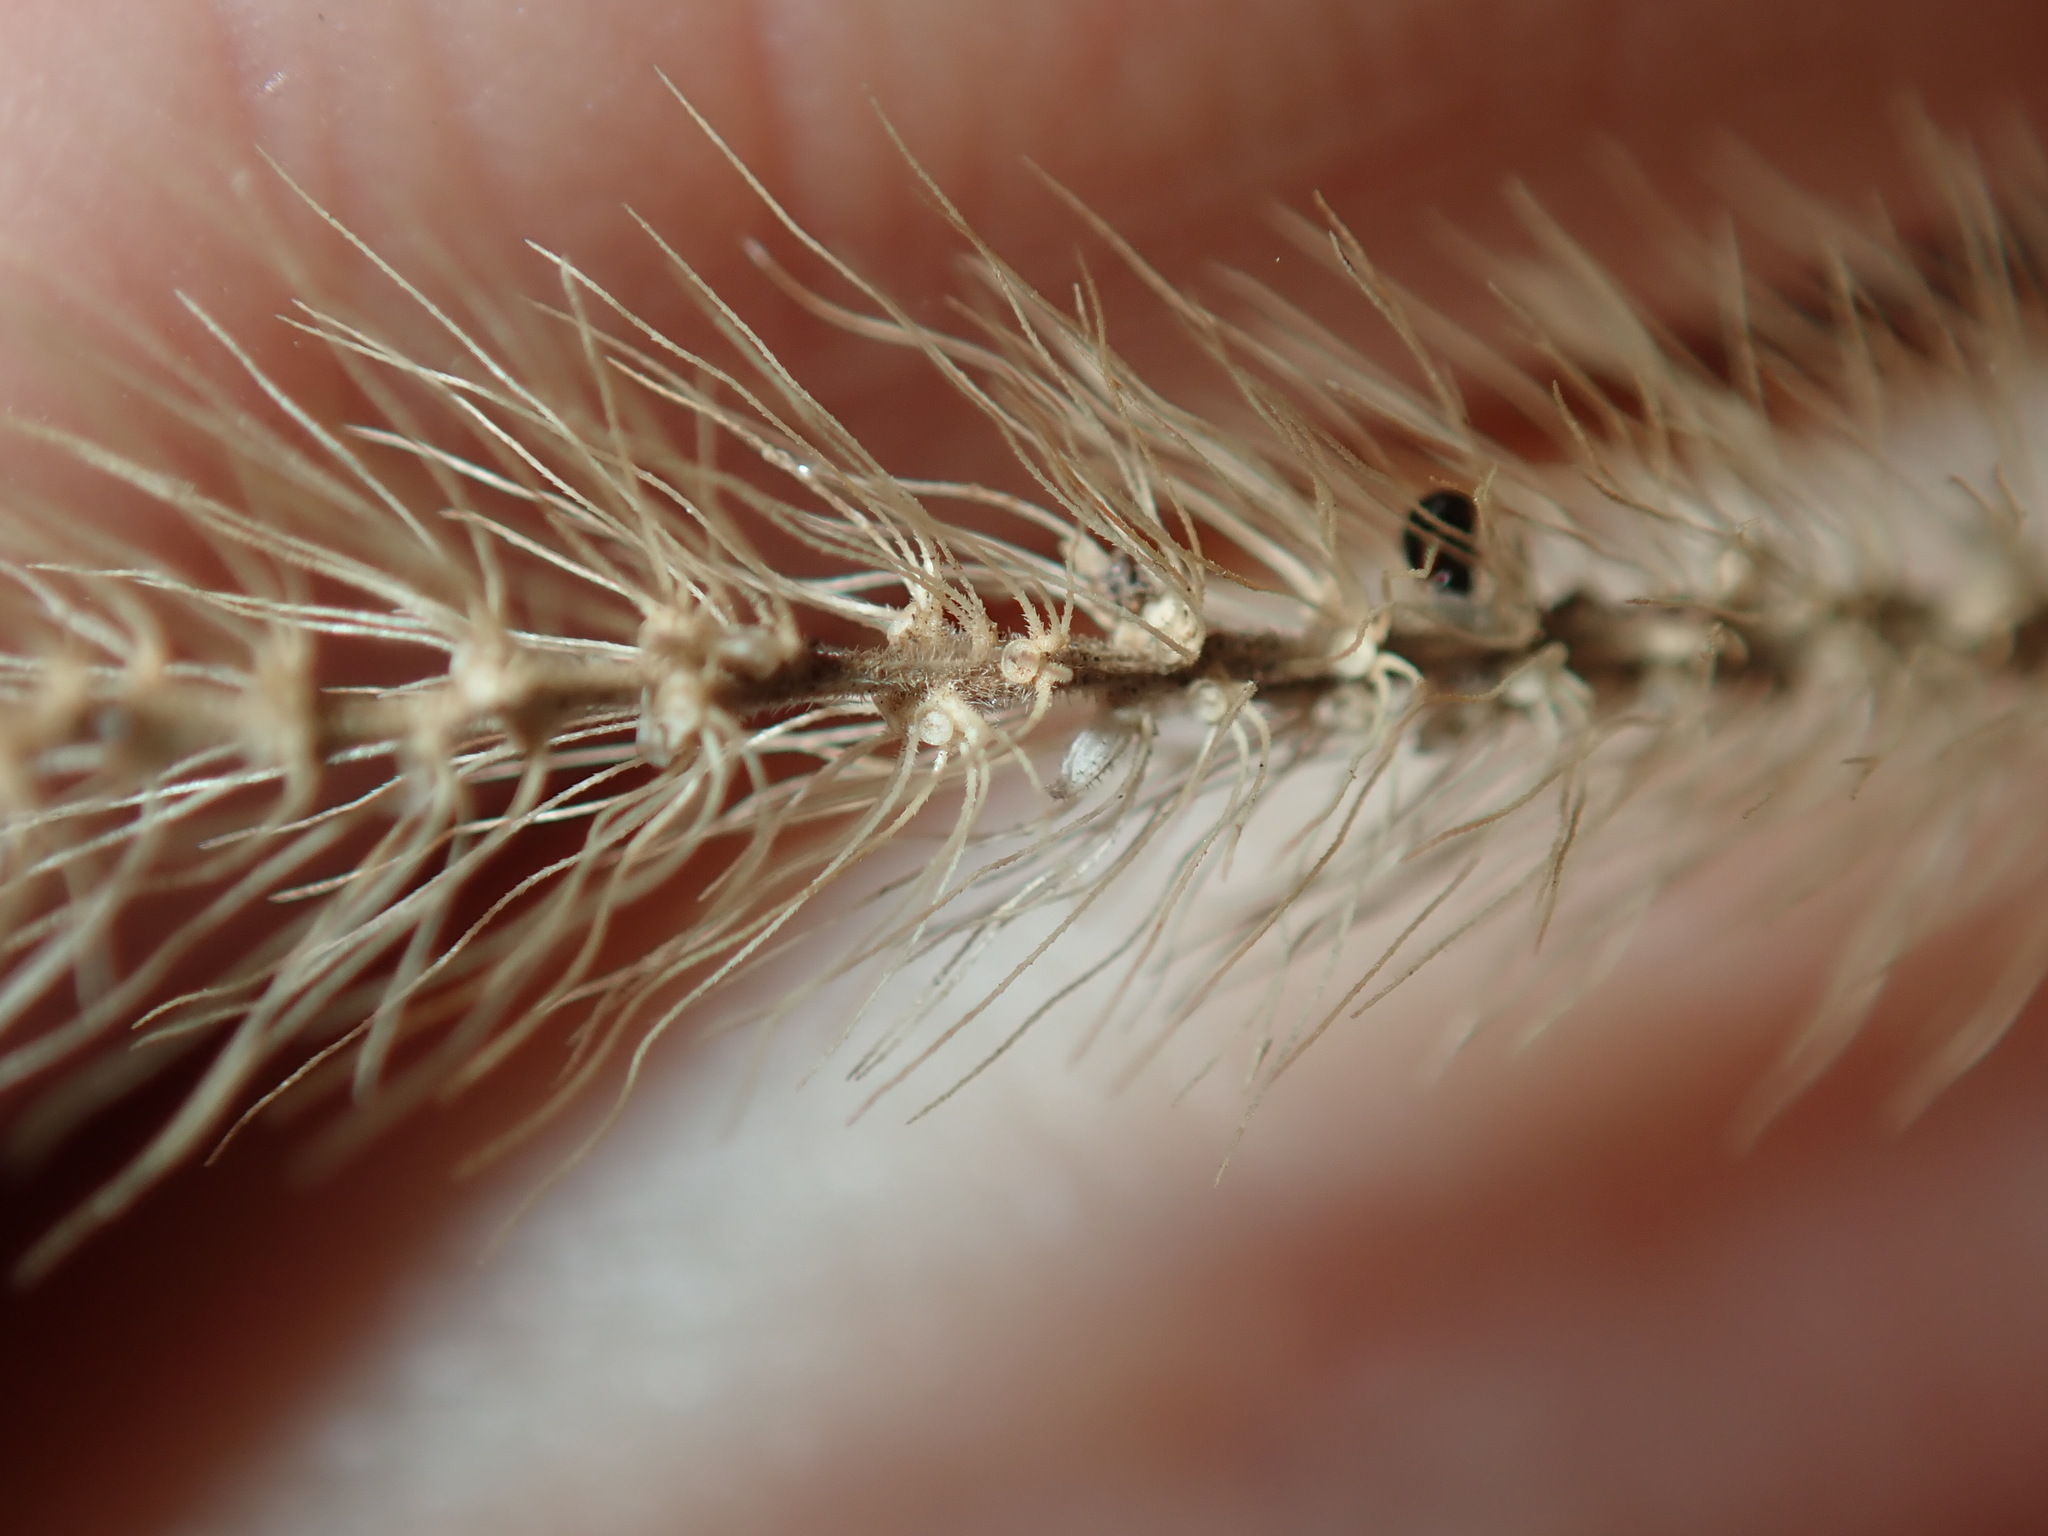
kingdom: Plantae
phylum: Tracheophyta
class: Liliopsida
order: Poales
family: Poaceae
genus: Setaria
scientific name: Setaria pumila
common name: Yellow bristle-grass
